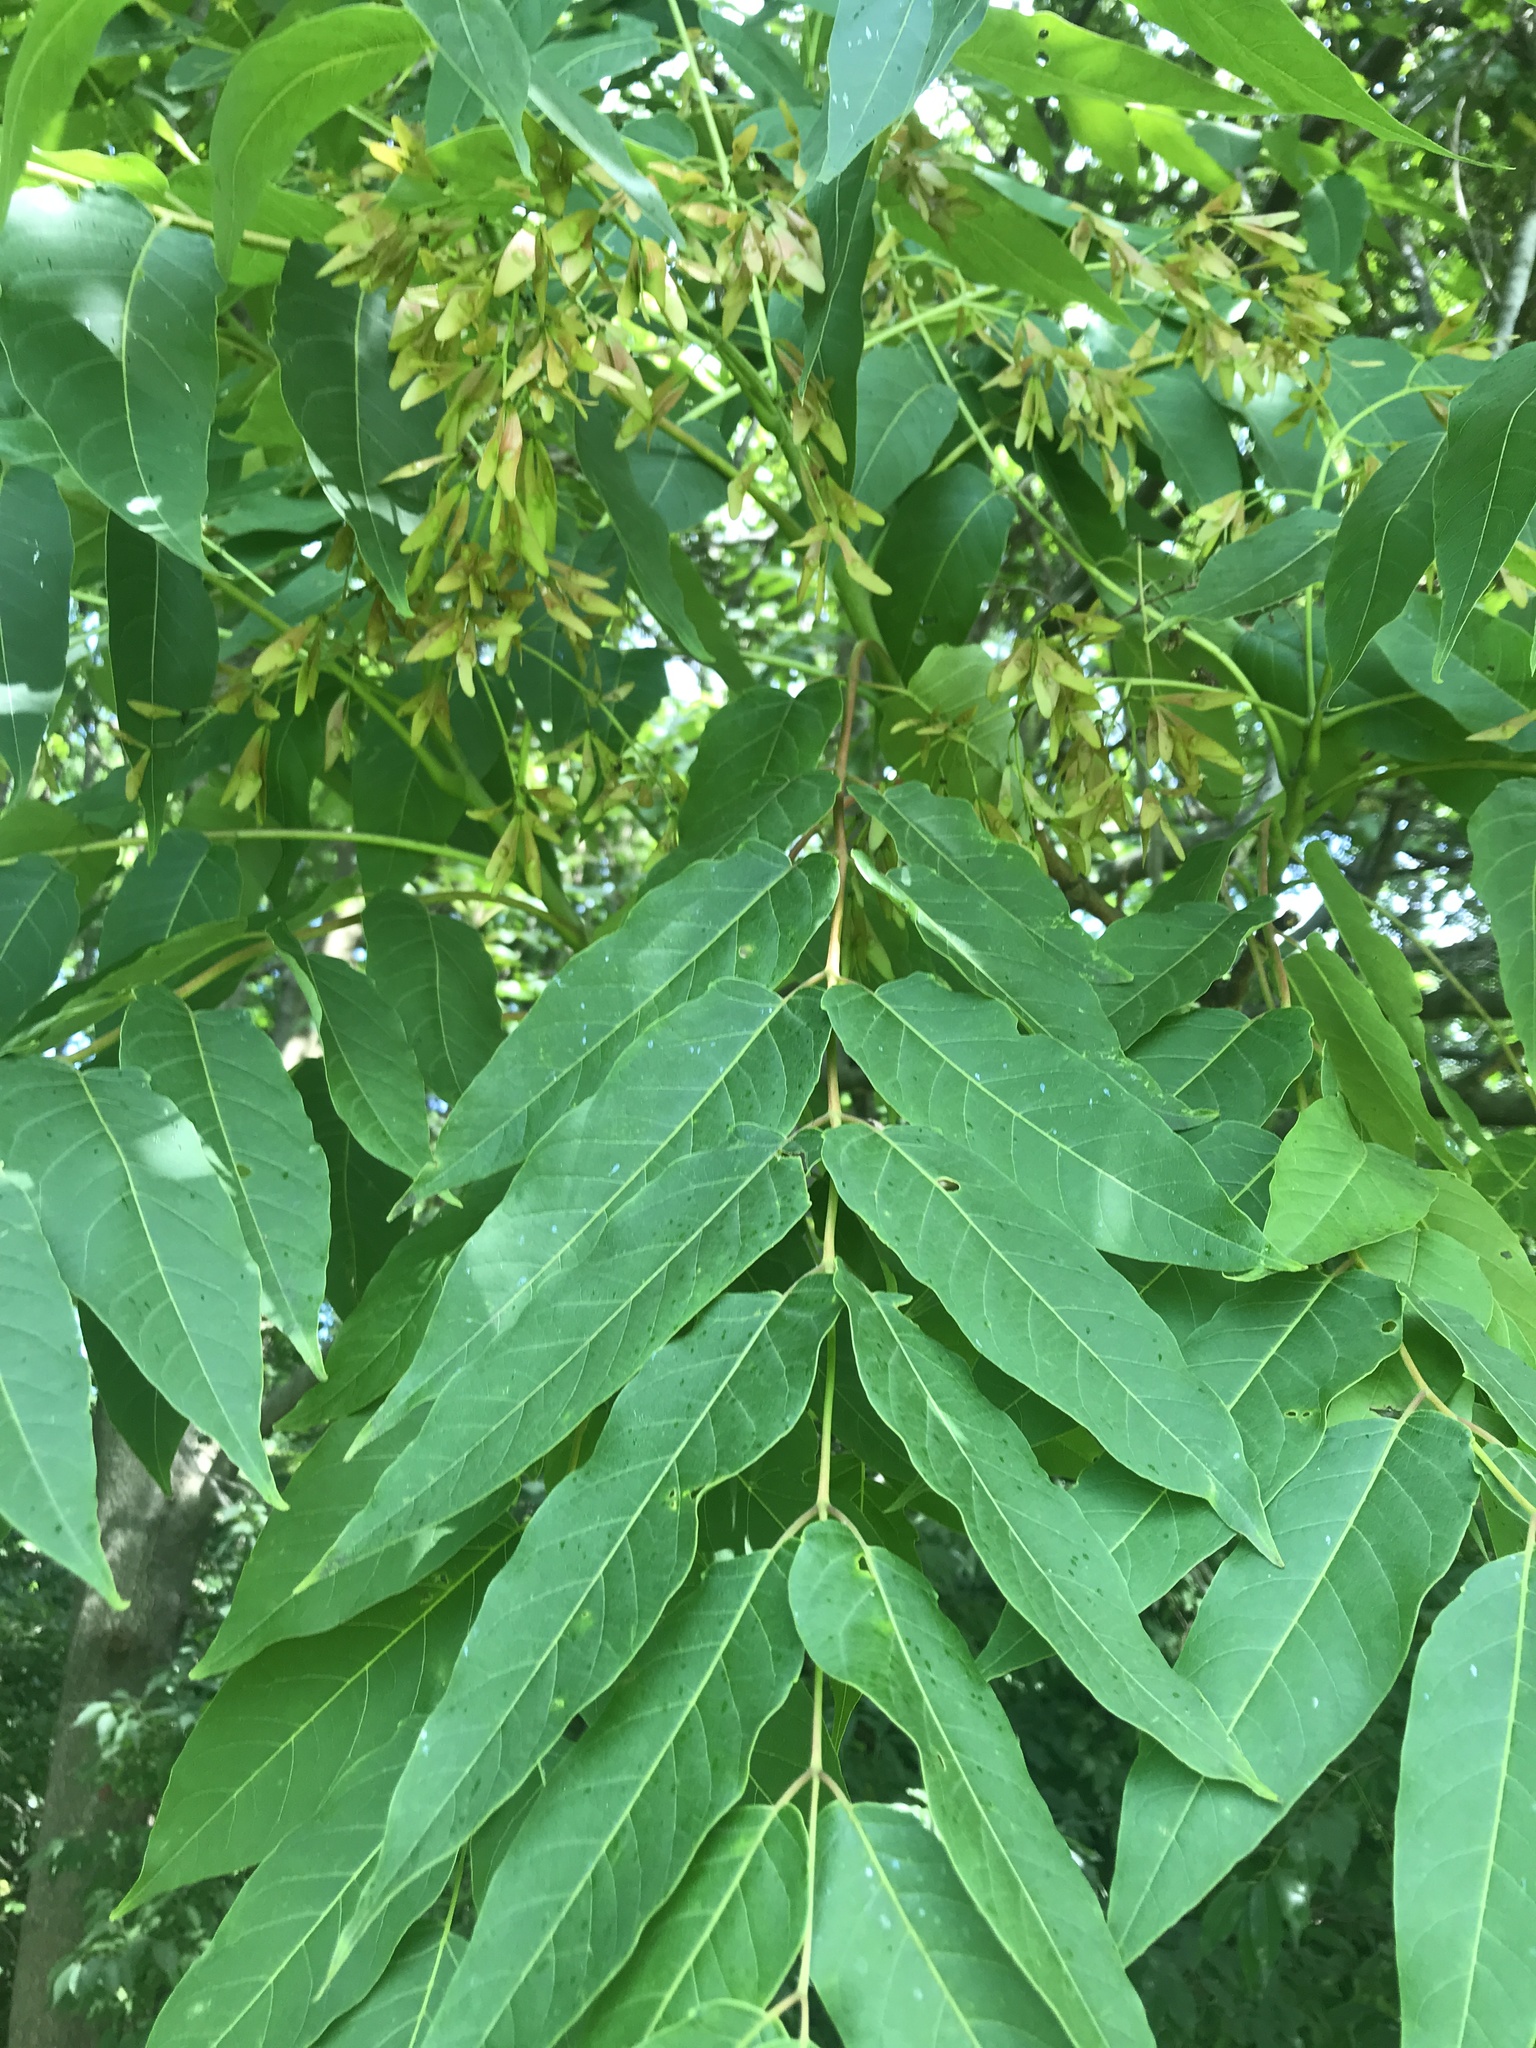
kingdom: Plantae
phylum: Tracheophyta
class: Magnoliopsida
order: Sapindales
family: Simaroubaceae
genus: Ailanthus
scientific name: Ailanthus altissima
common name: Tree-of-heaven
